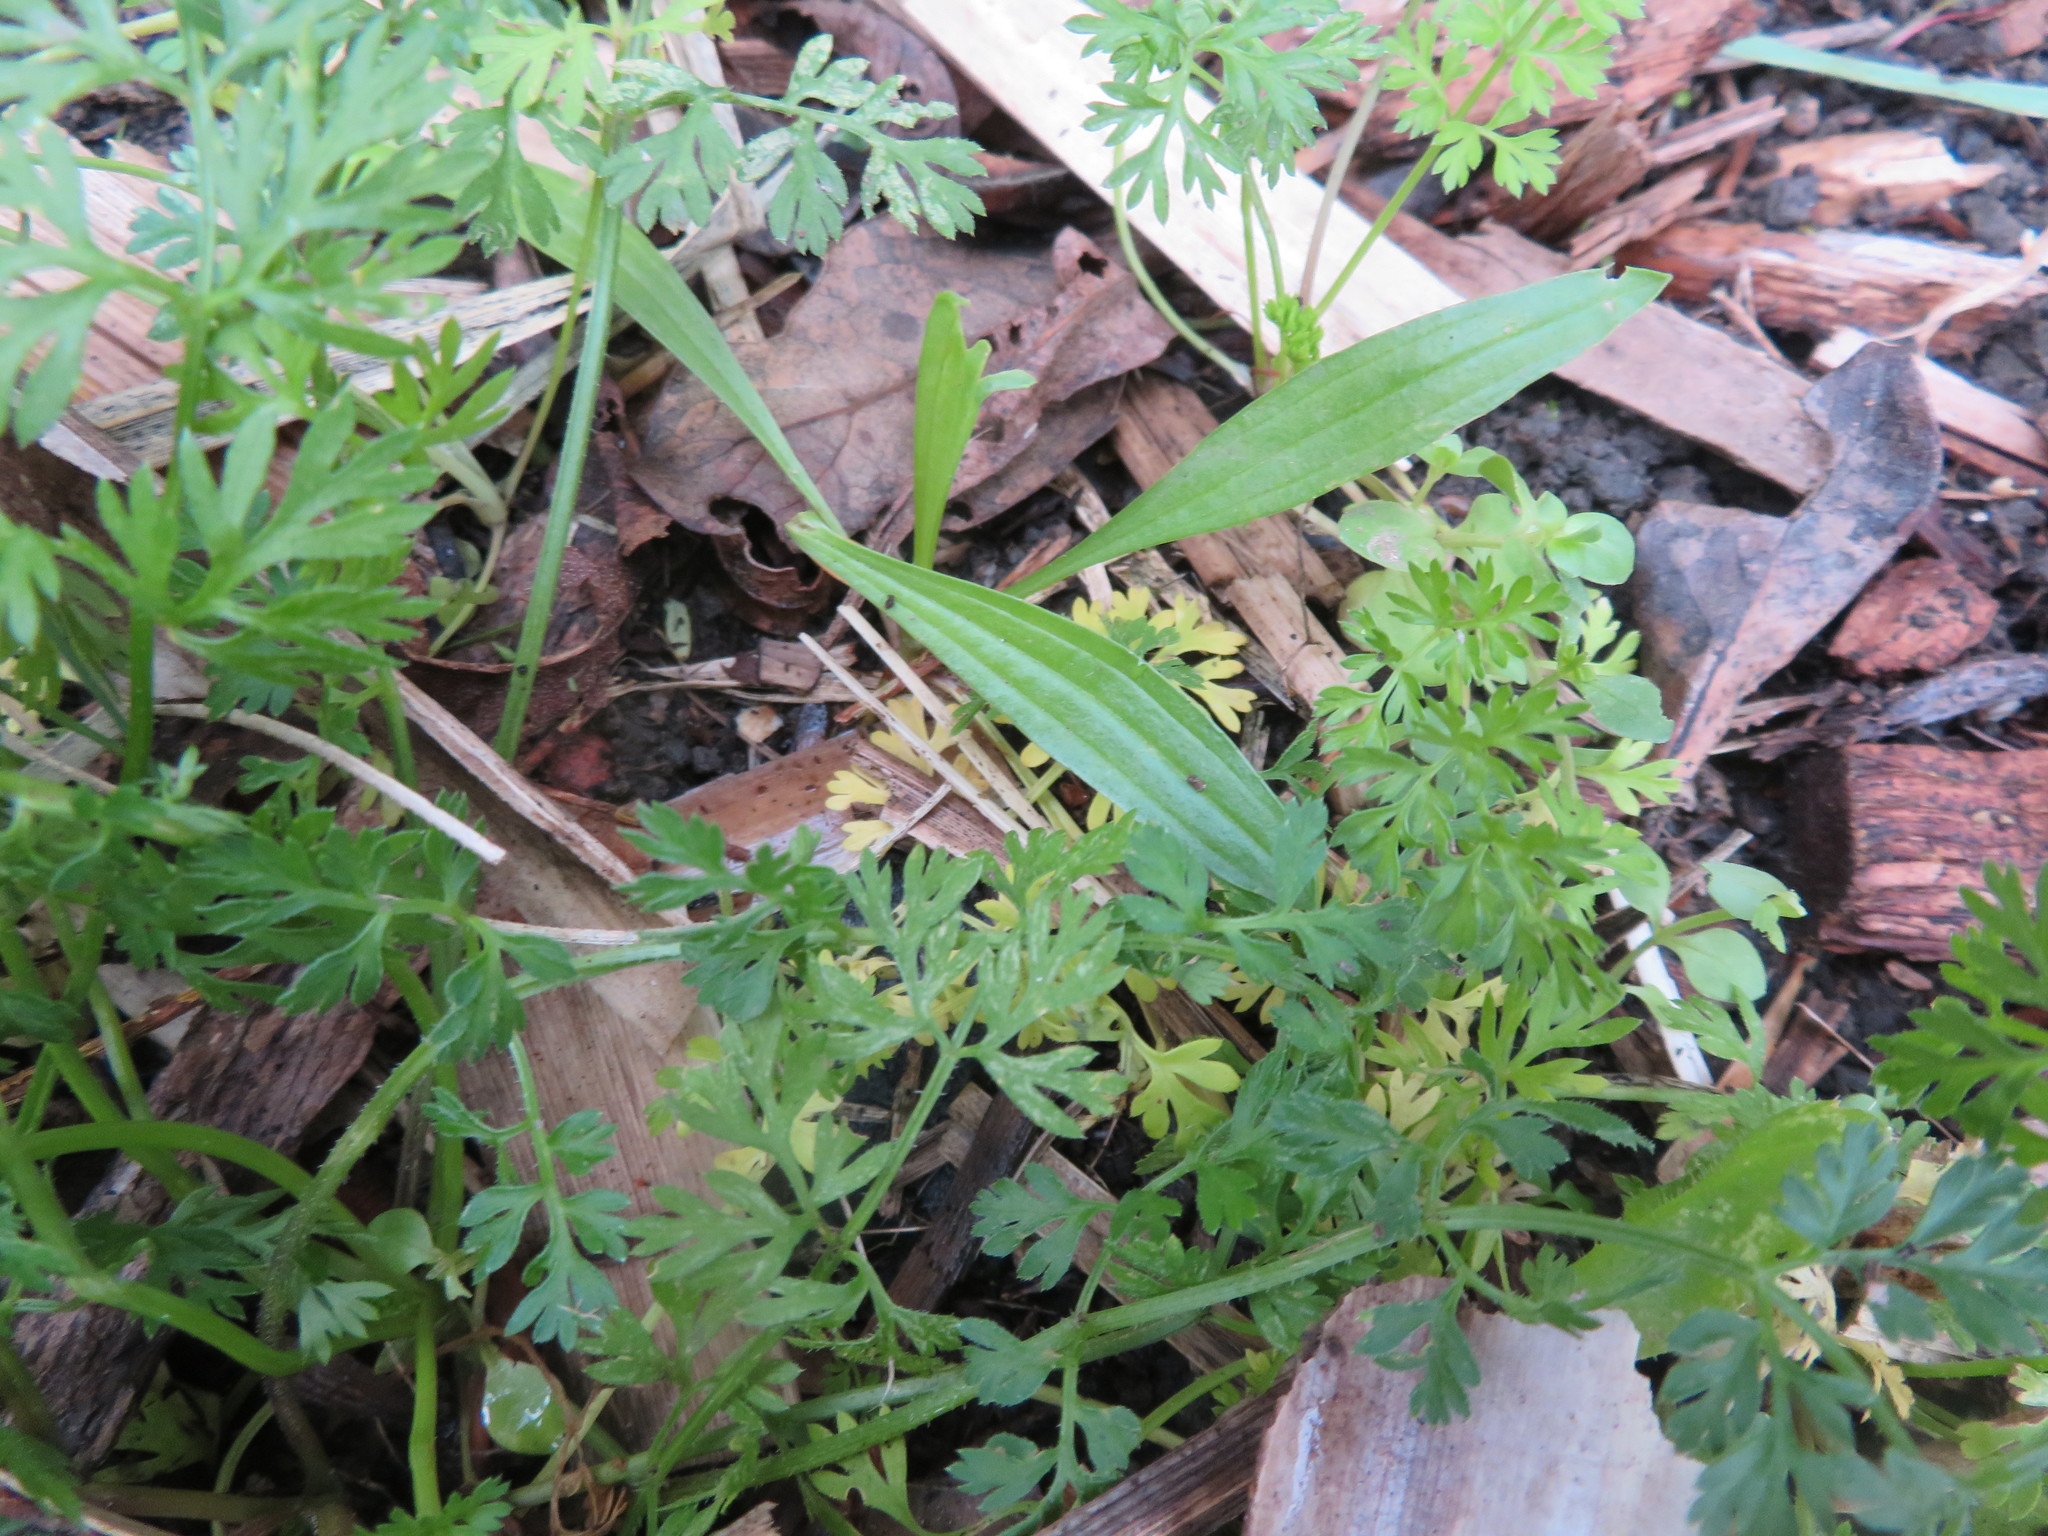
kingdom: Plantae
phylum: Tracheophyta
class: Magnoliopsida
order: Lamiales
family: Plantaginaceae
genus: Plantago
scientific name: Plantago lanceolata
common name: Ribwort plantain
